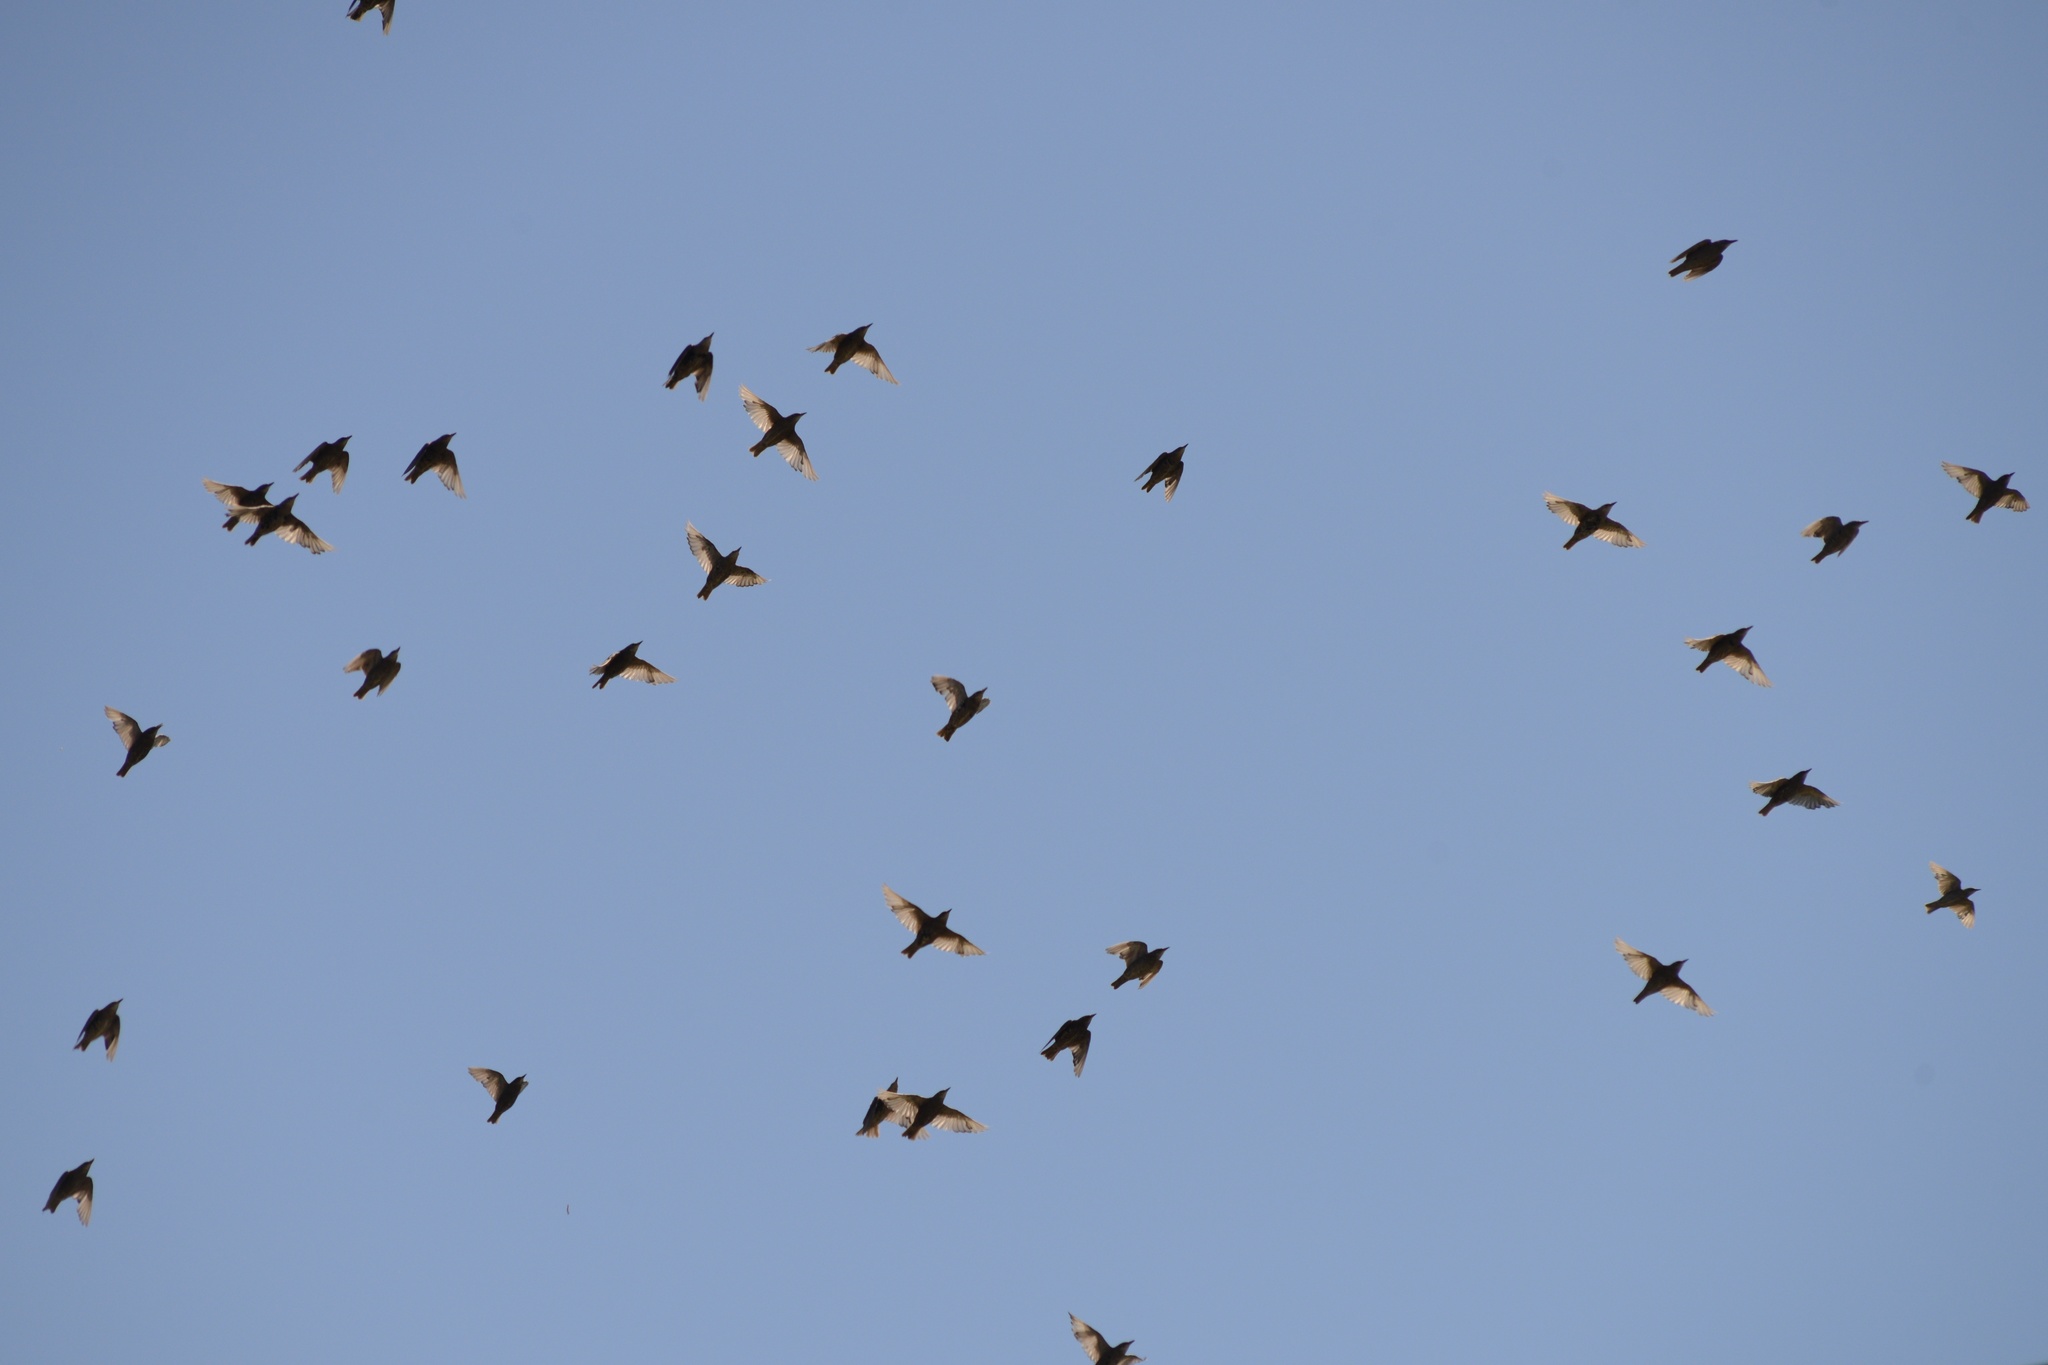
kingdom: Animalia
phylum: Chordata
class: Aves
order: Passeriformes
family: Sturnidae
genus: Sturnus
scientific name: Sturnus vulgaris
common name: Common starling
